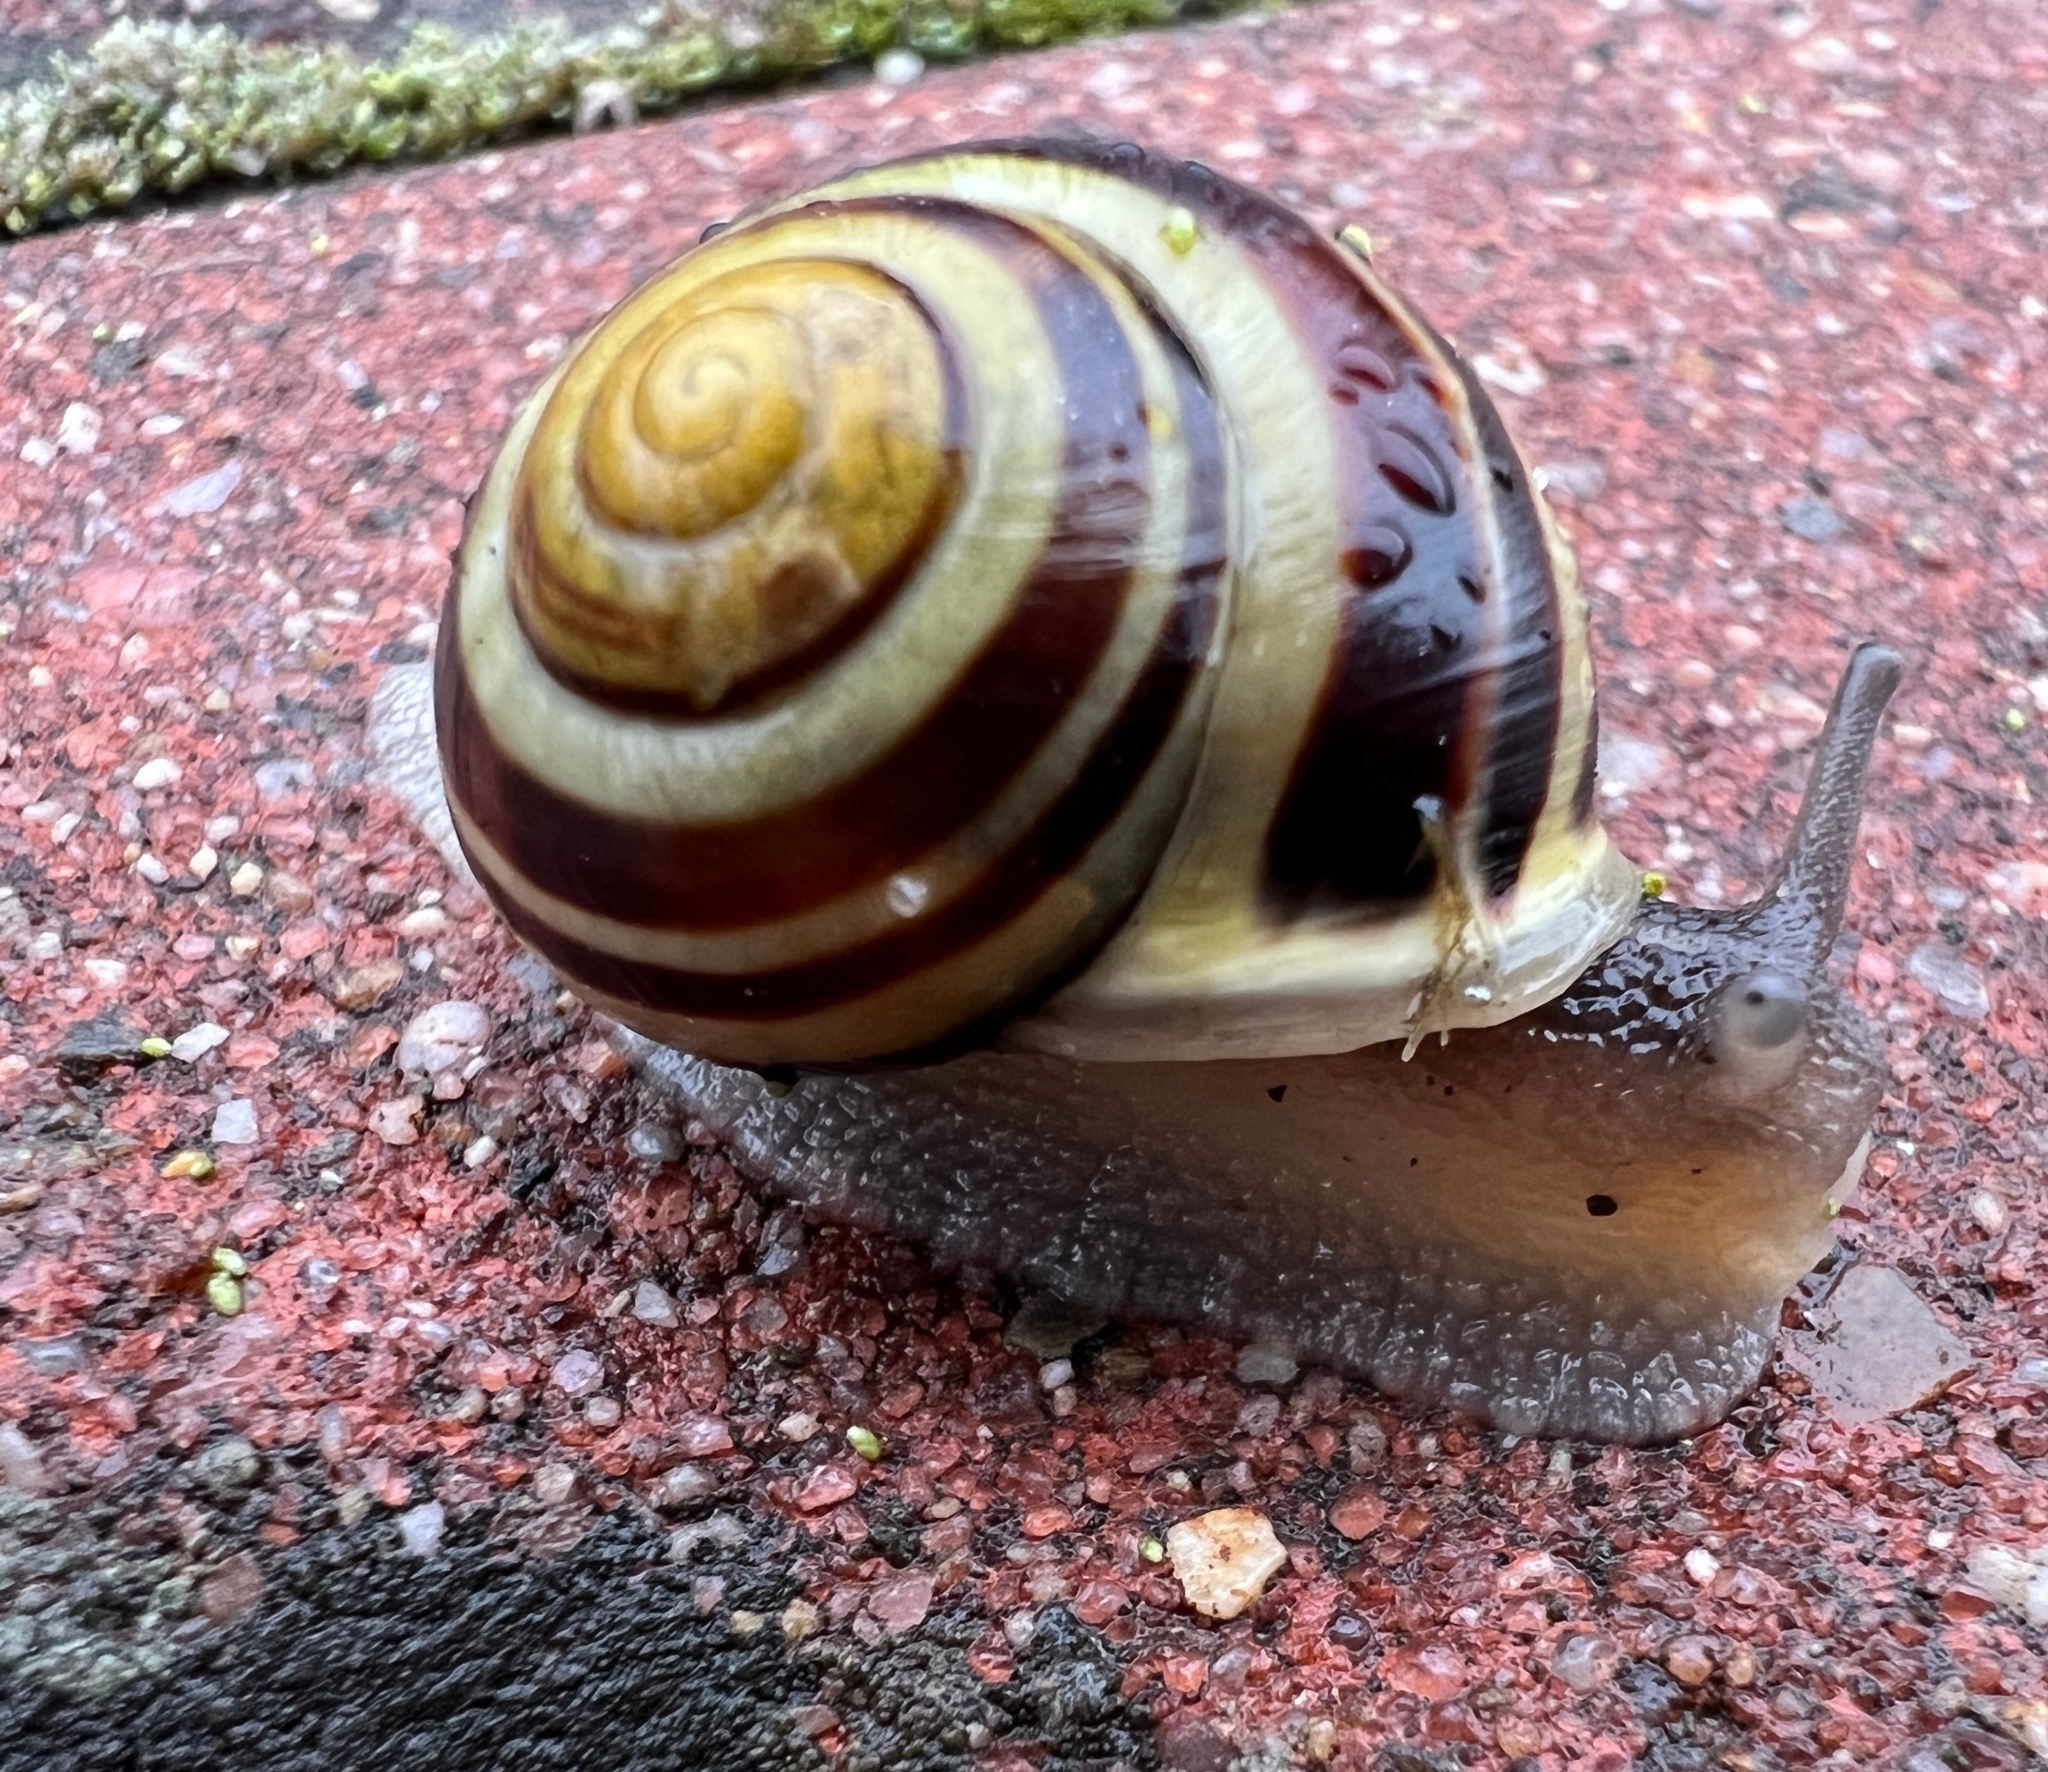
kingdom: Animalia
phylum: Mollusca
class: Gastropoda
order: Stylommatophora
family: Helicidae
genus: Cepaea
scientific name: Cepaea hortensis
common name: White-lip gardensnail
